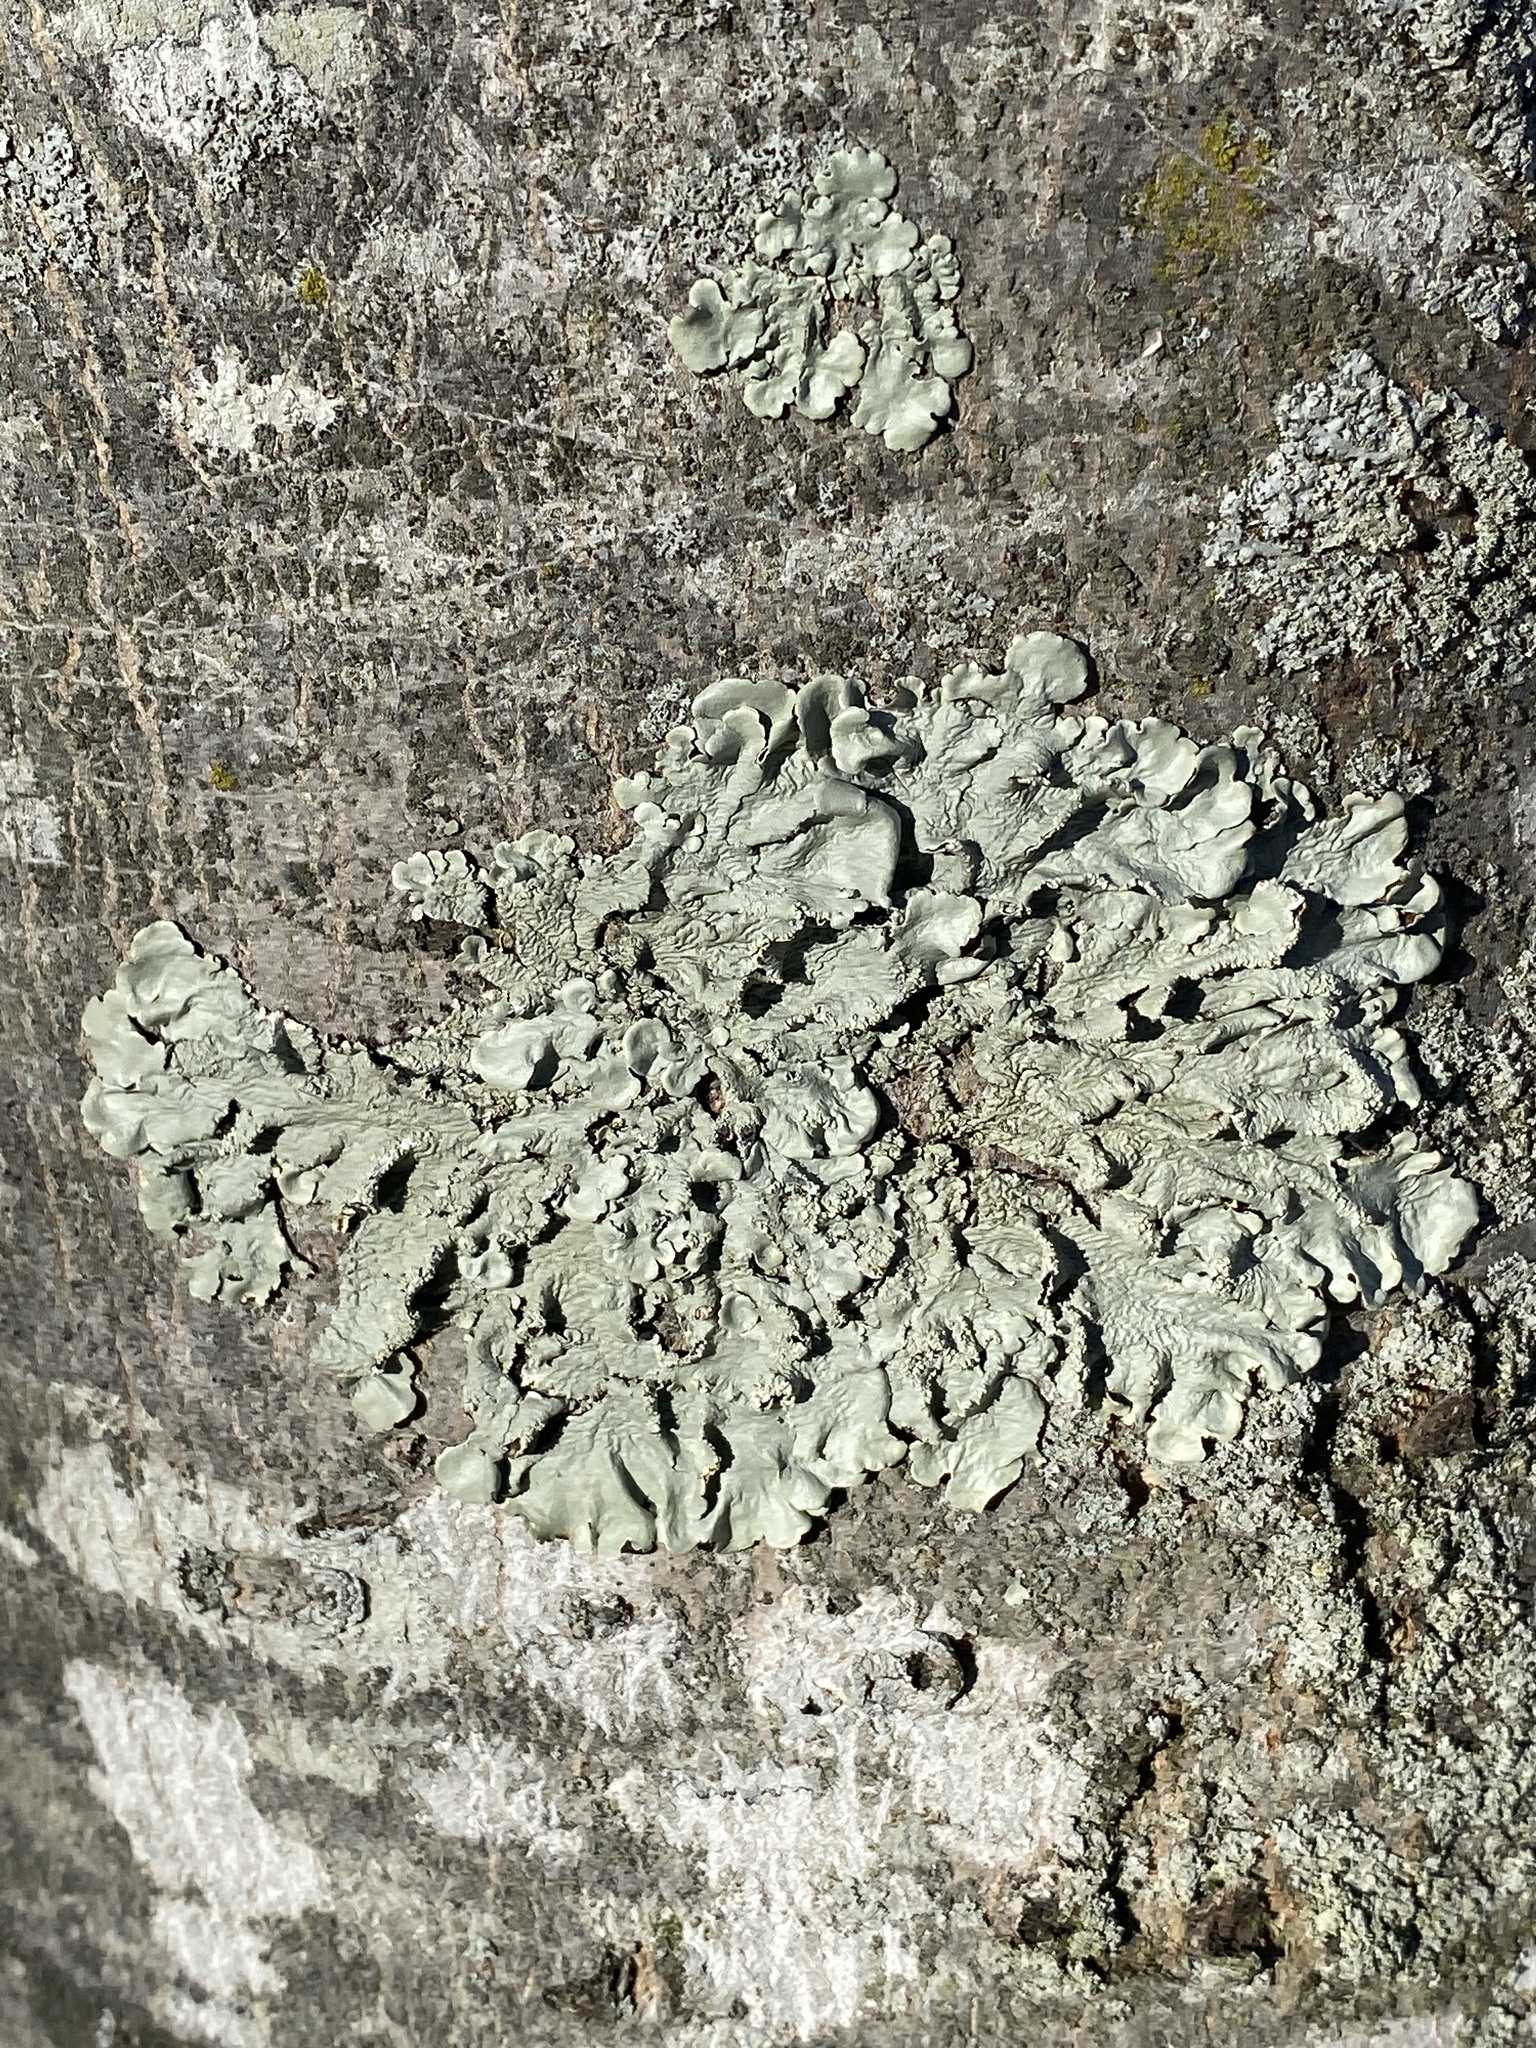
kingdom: Fungi
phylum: Ascomycota
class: Lecanoromycetes
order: Lecanorales
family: Parmeliaceae
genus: Flavoparmelia
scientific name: Flavoparmelia caperata
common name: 40-mile per hour lichen
